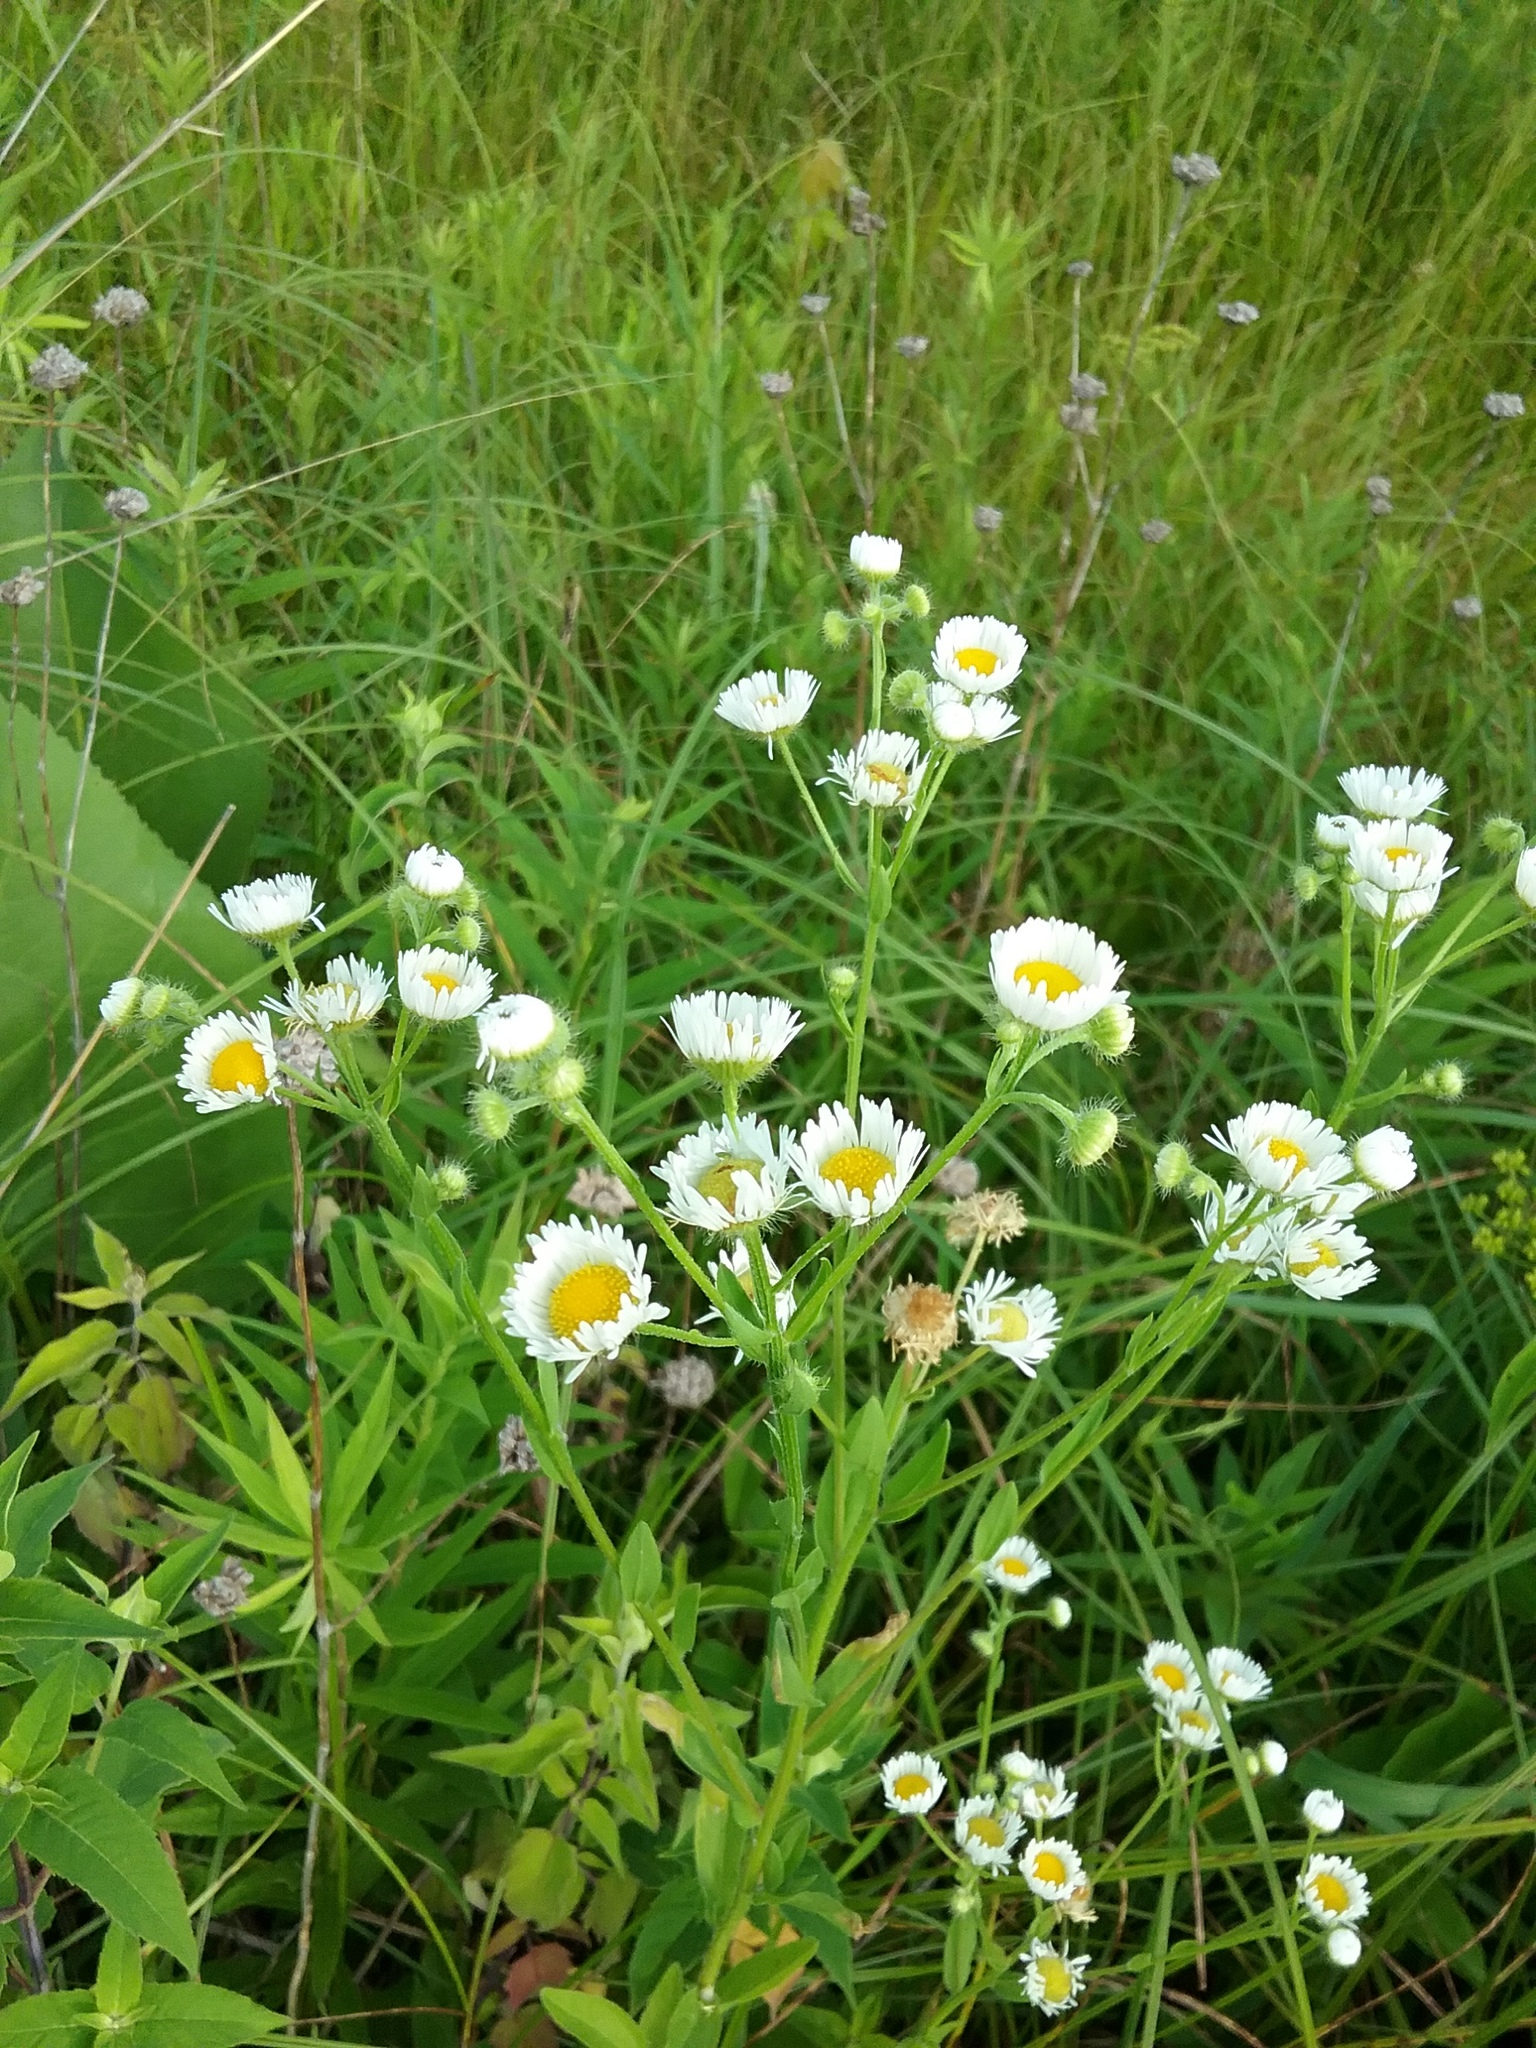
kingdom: Plantae
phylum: Tracheophyta
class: Magnoliopsida
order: Asterales
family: Asteraceae
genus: Erigeron
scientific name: Erigeron philadelphicus
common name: Robin's-plantain
